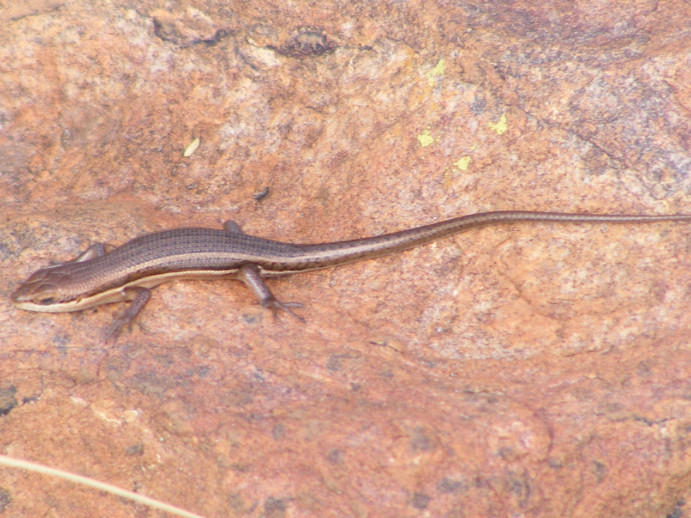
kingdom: Animalia
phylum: Chordata
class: Squamata
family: Scincidae
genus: Trachylepis
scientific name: Trachylepis varia
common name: Eastern variable skink
